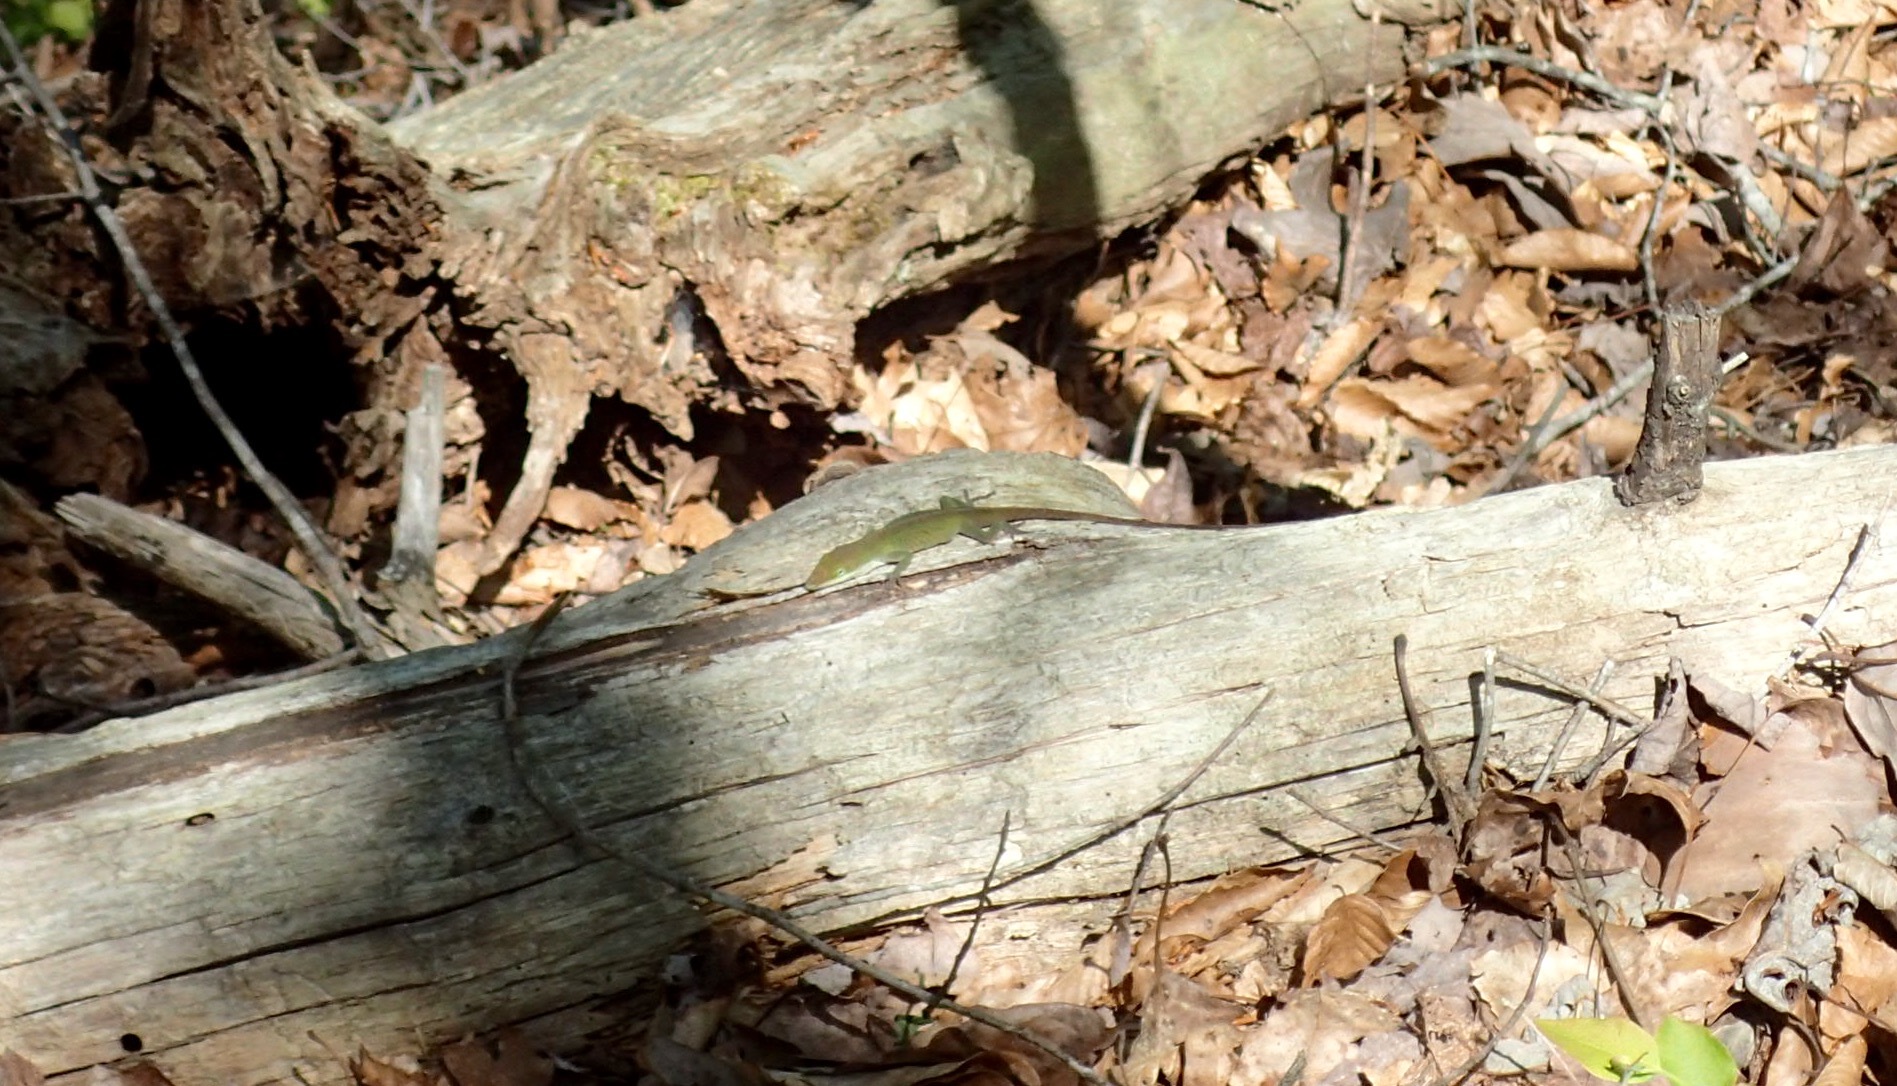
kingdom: Animalia
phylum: Chordata
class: Squamata
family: Dactyloidae
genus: Anolis
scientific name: Anolis carolinensis
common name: Green anole
